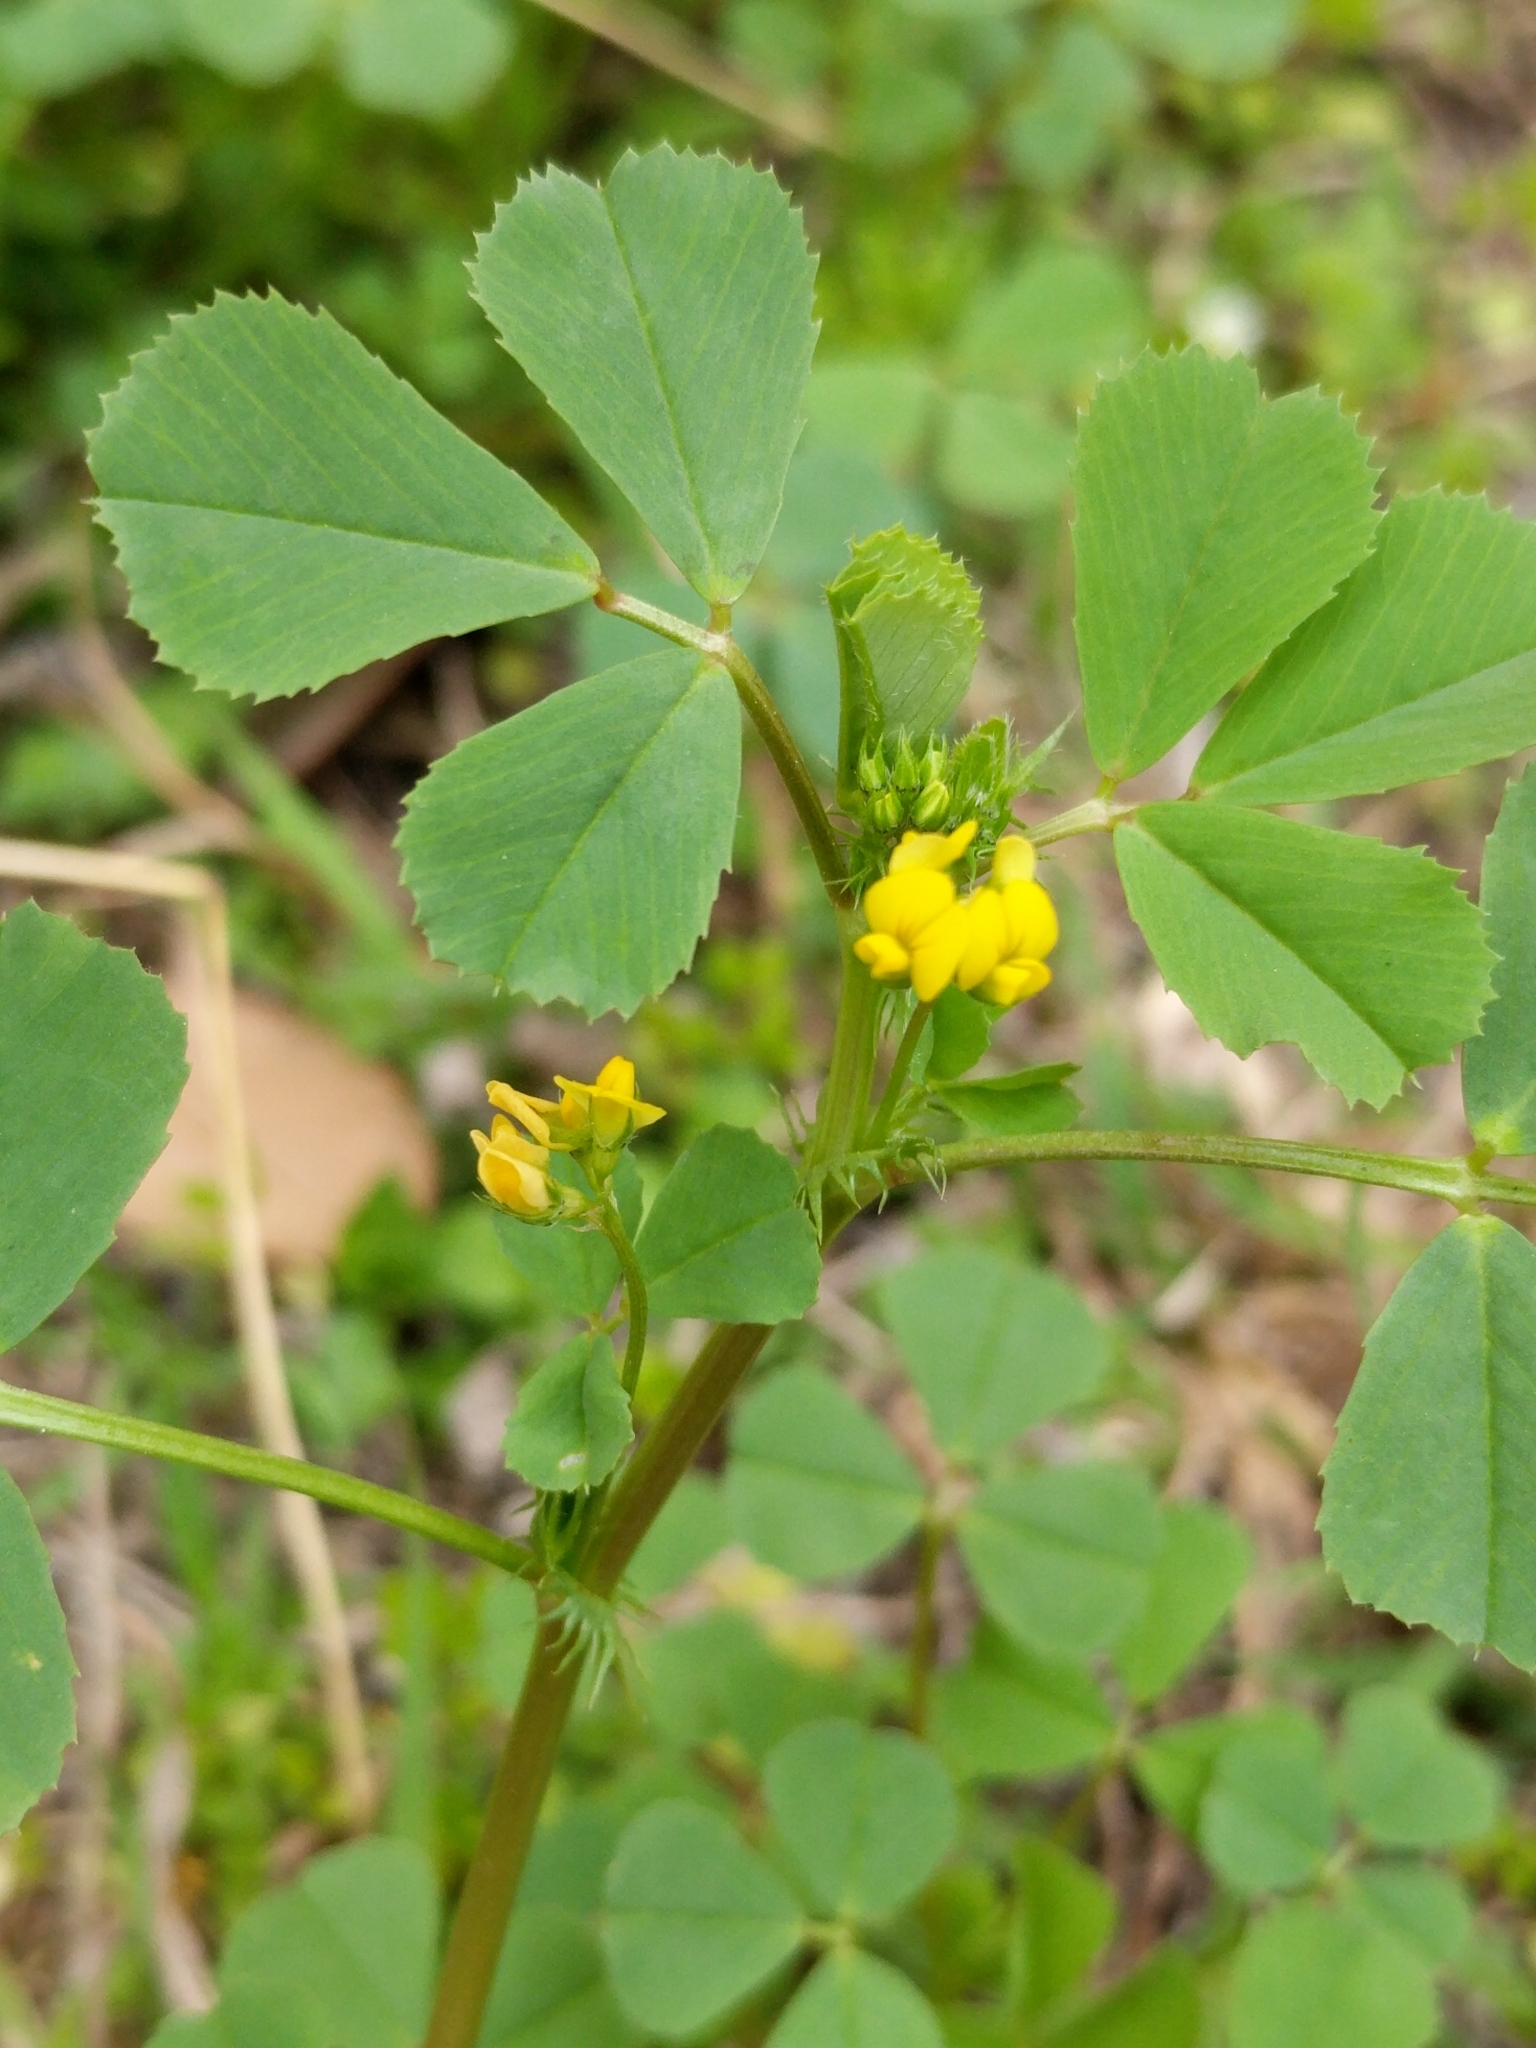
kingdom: Plantae
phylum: Tracheophyta
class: Magnoliopsida
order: Fabales
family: Fabaceae
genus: Medicago
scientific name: Medicago polymorpha
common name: Burclover
